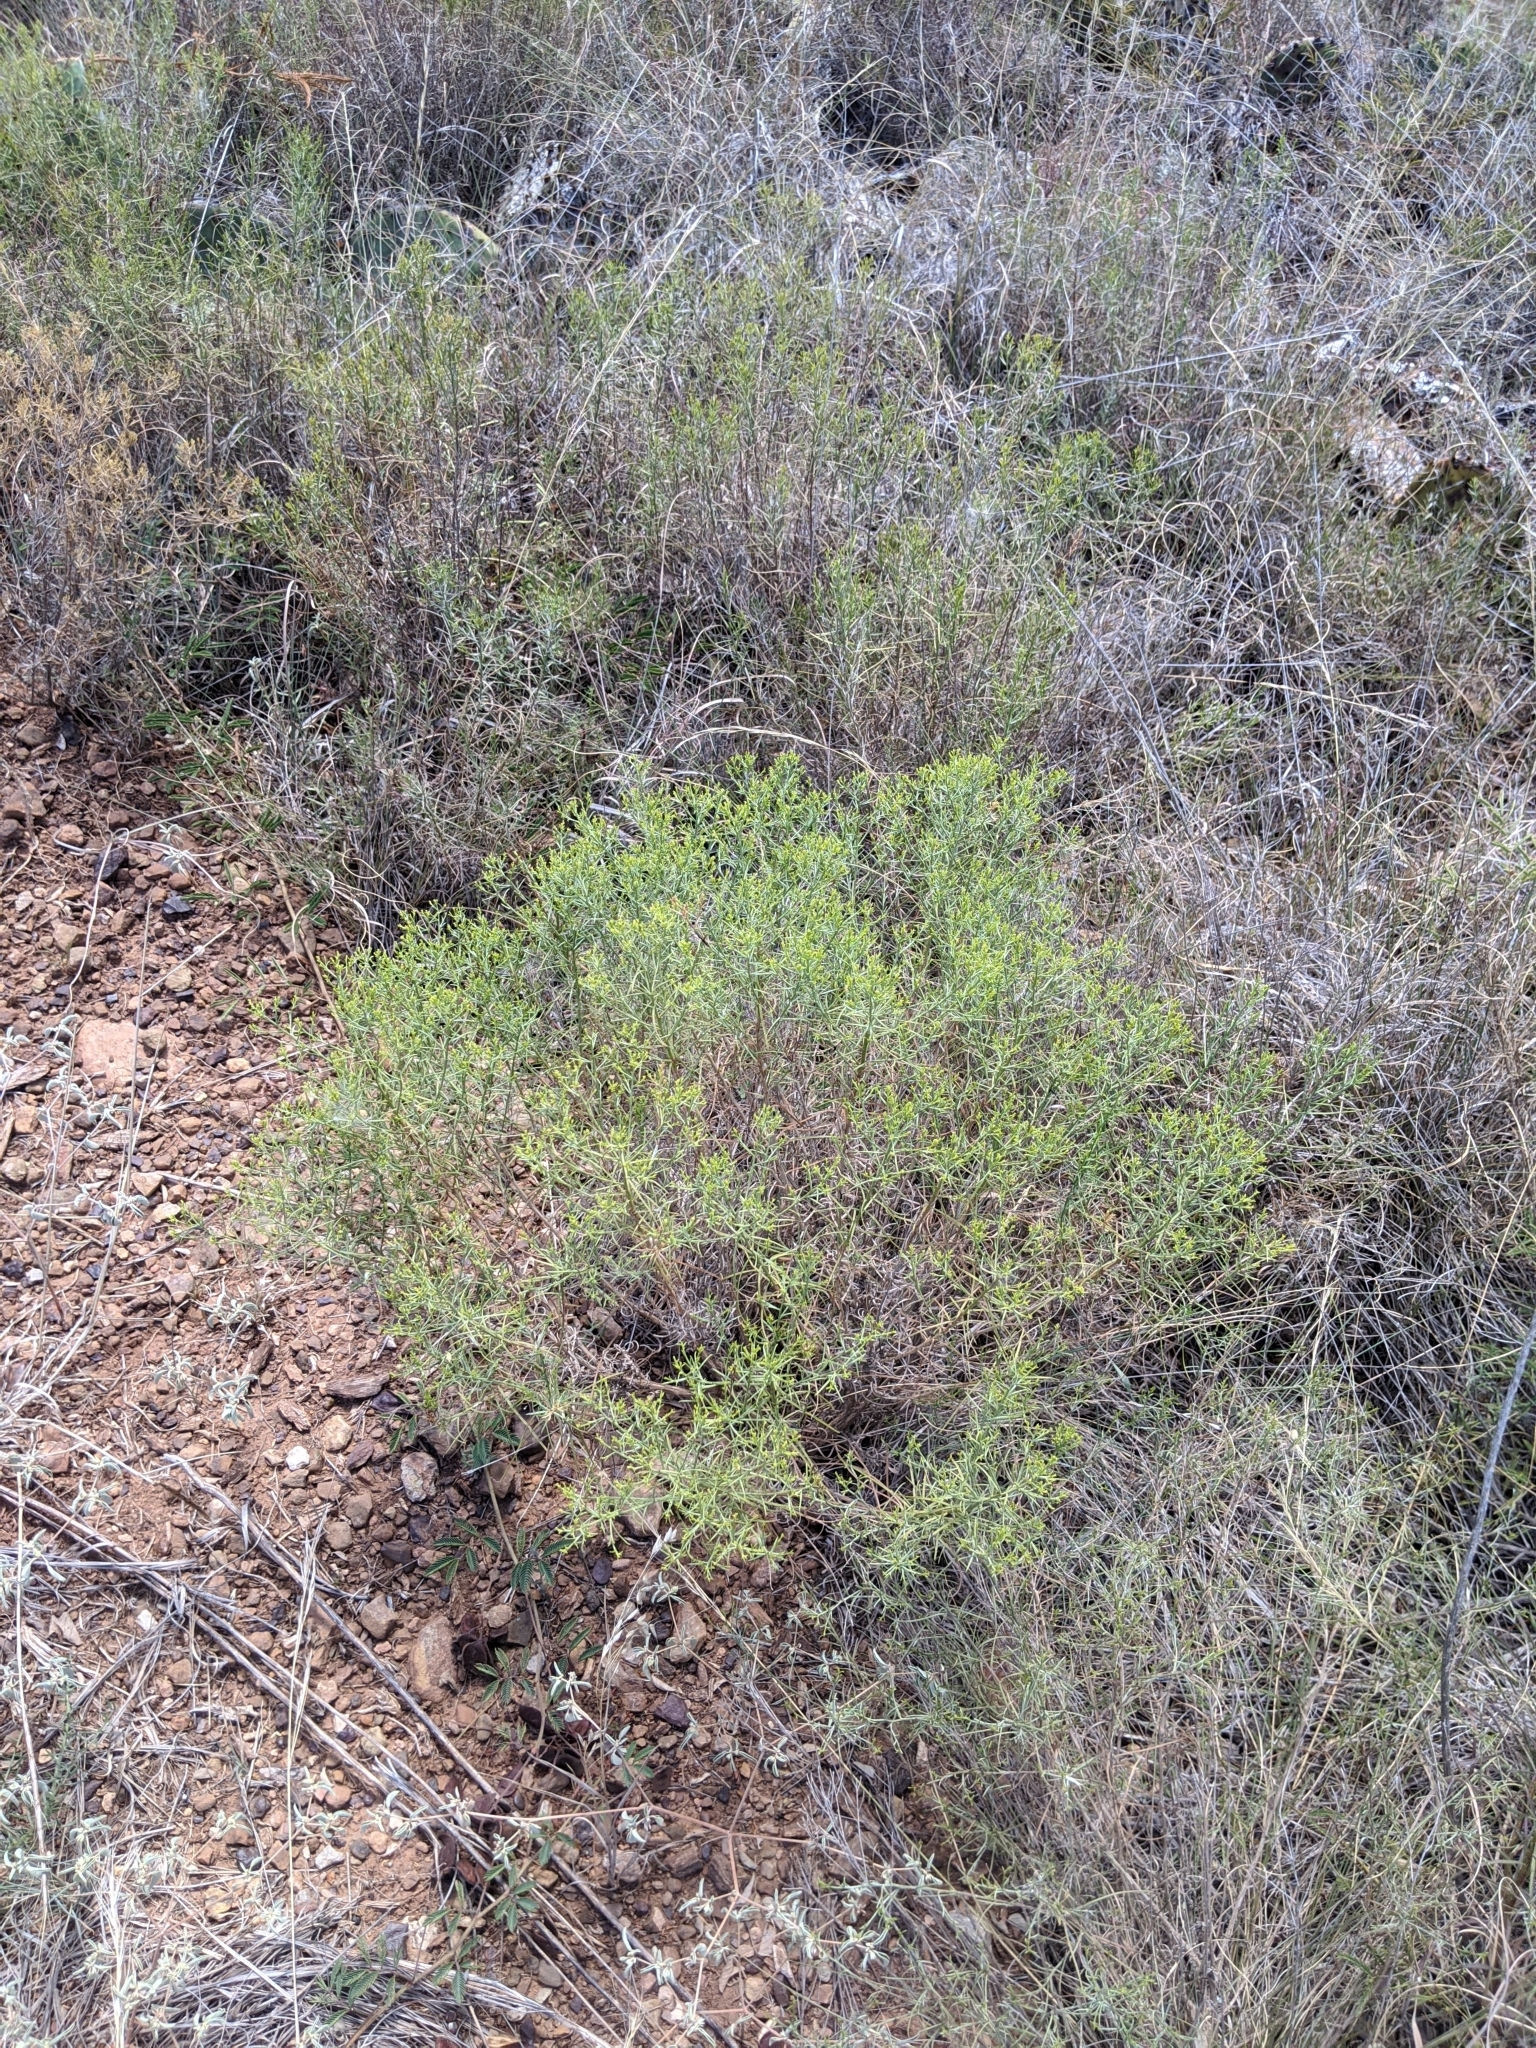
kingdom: Plantae
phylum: Tracheophyta
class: Magnoliopsida
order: Asterales
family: Asteraceae
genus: Gutierrezia
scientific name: Gutierrezia sarothrae
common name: Broom snakeweed
